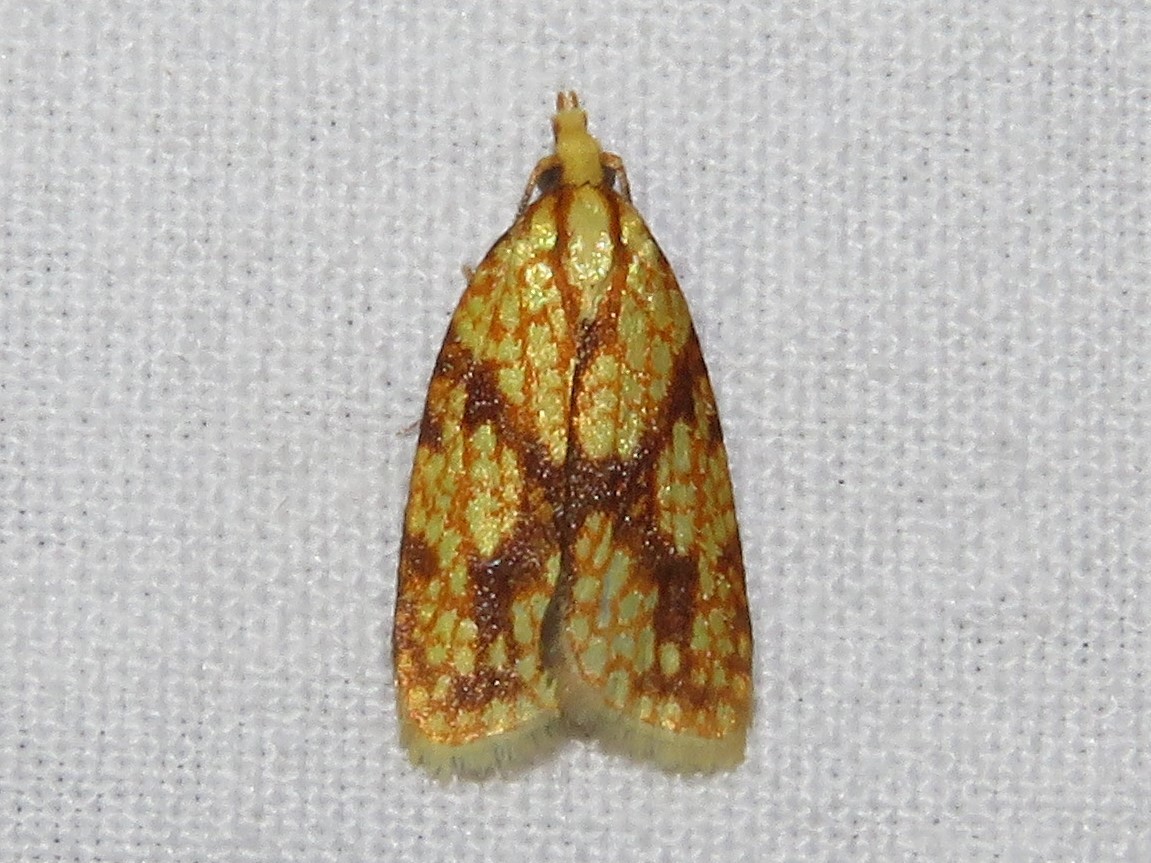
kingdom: Animalia
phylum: Arthropoda
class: Insecta
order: Lepidoptera
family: Tortricidae
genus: Sparganothis
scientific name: Sparganothis sulfureana
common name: Sparganothis fruitworm moth
